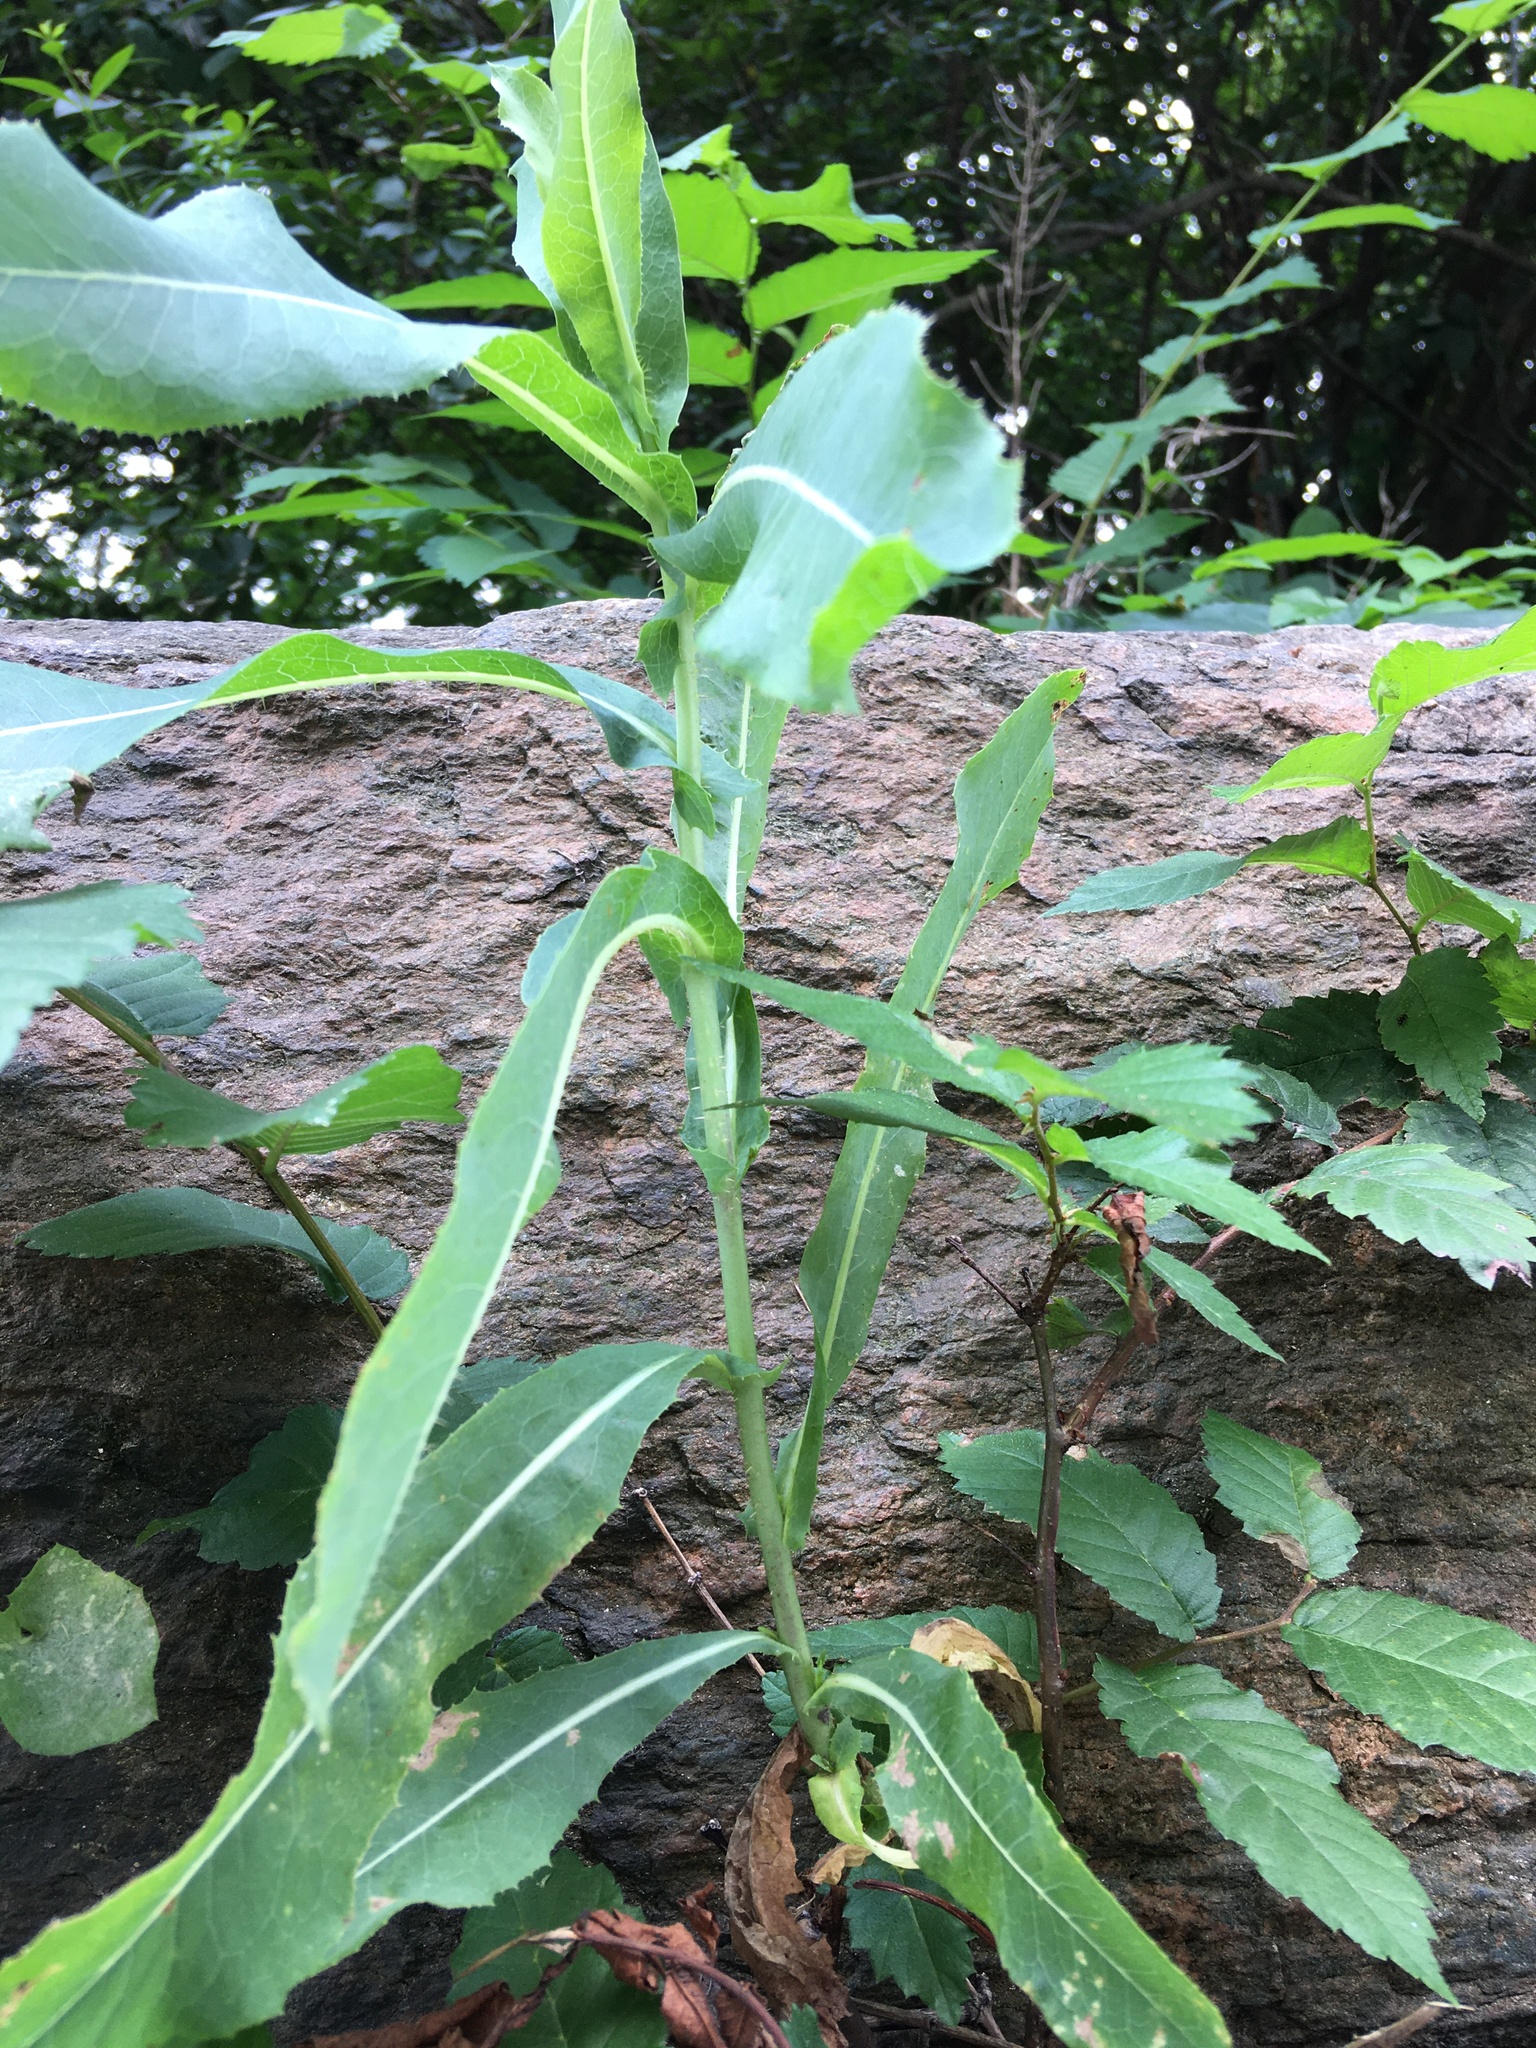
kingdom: Plantae
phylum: Tracheophyta
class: Magnoliopsida
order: Asterales
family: Asteraceae
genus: Lactuca
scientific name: Lactuca serriola
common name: Prickly lettuce
